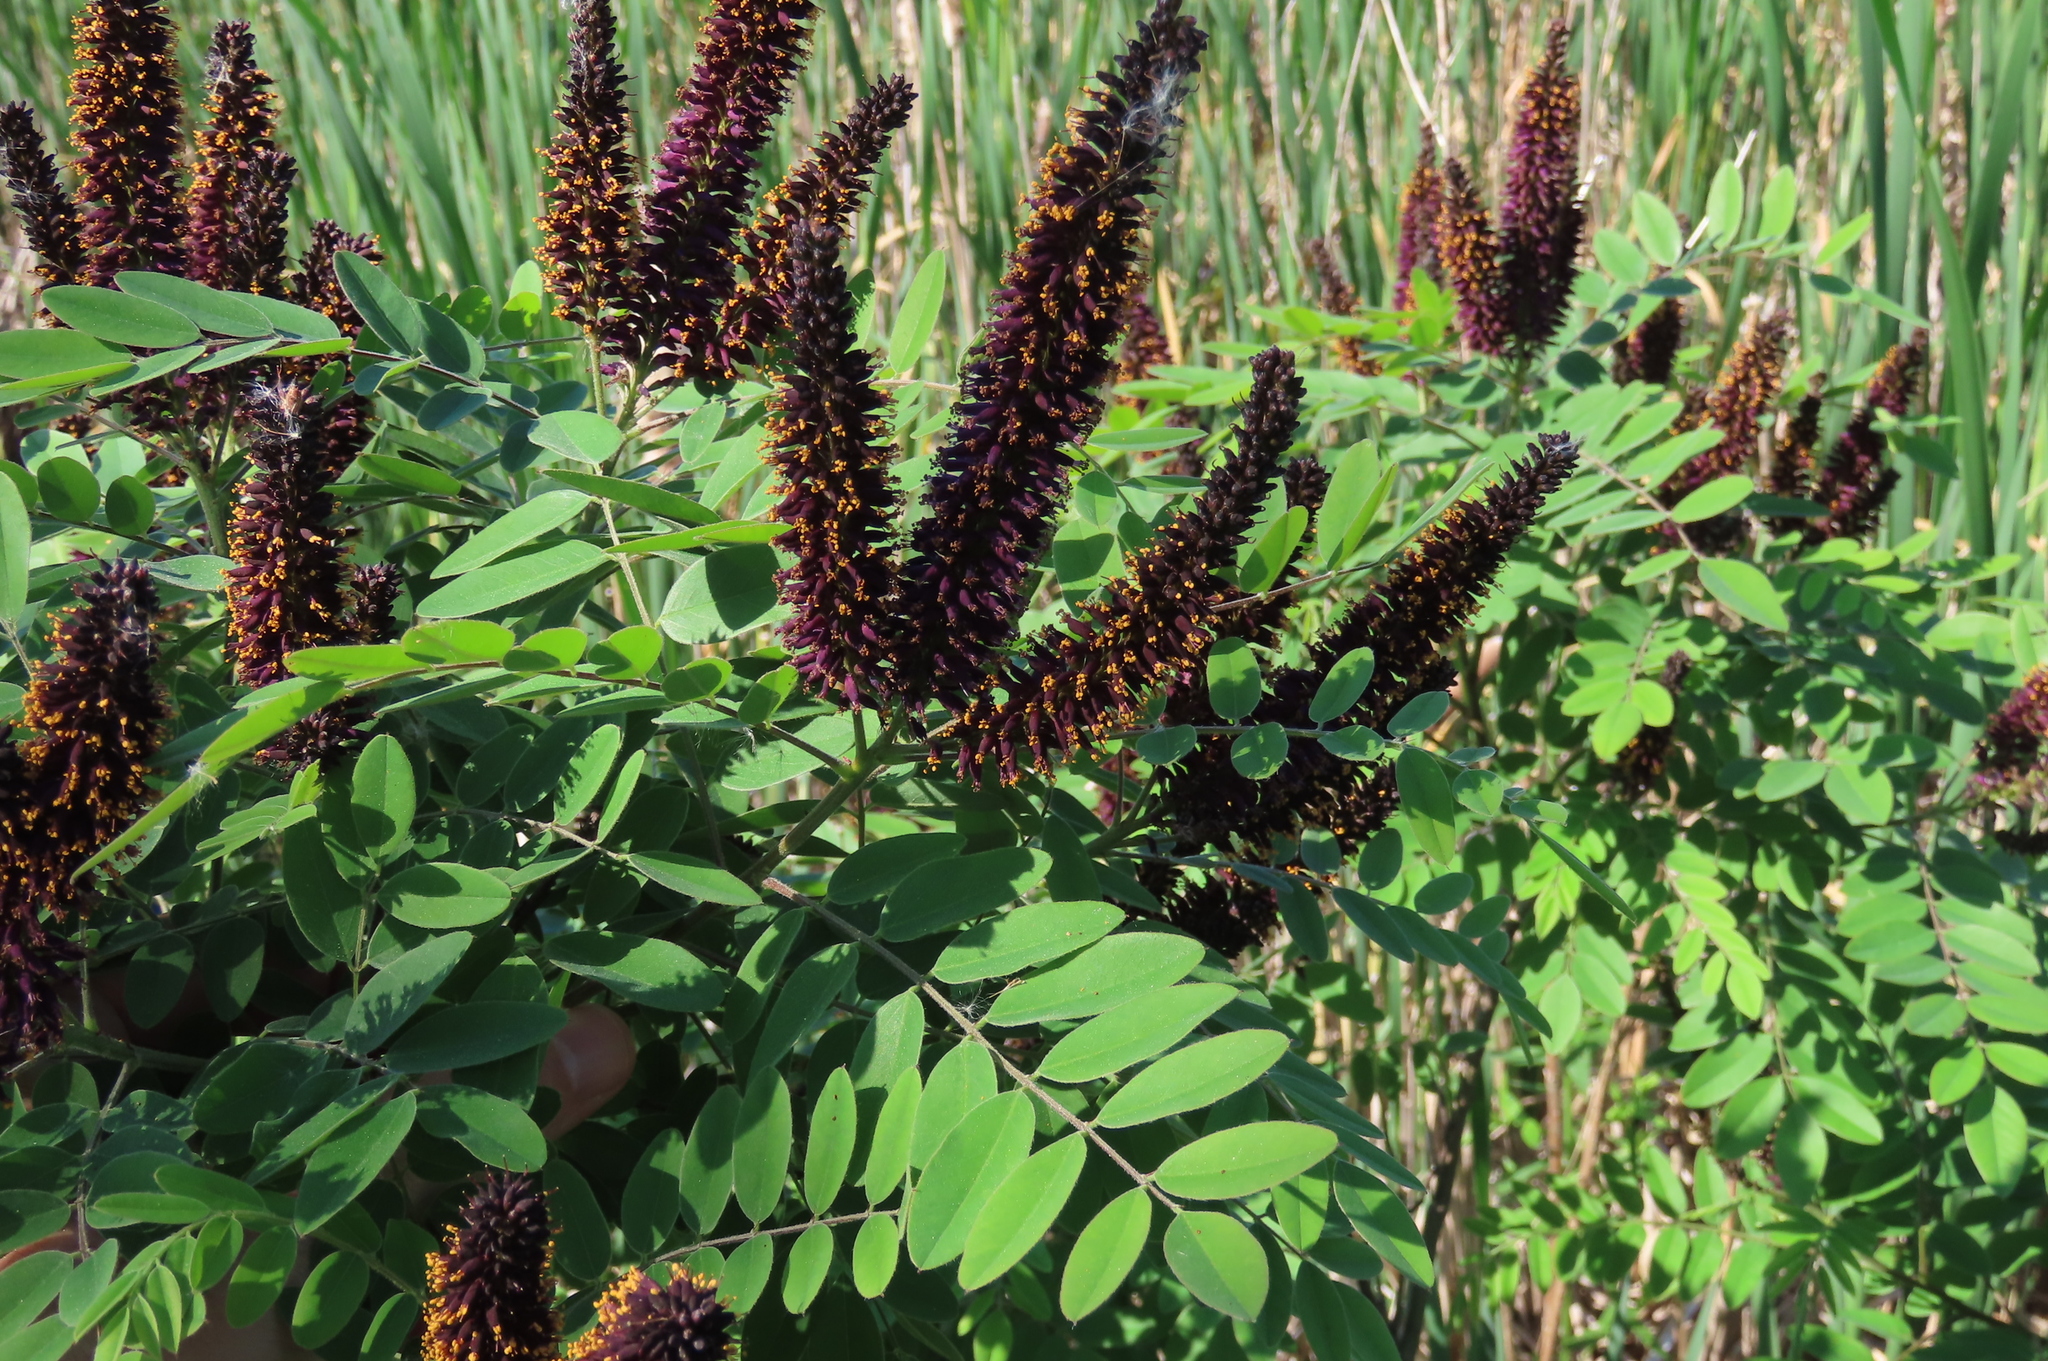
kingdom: Plantae
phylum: Tracheophyta
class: Magnoliopsida
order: Fabales
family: Fabaceae
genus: Amorpha
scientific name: Amorpha fruticosa
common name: False indigo
